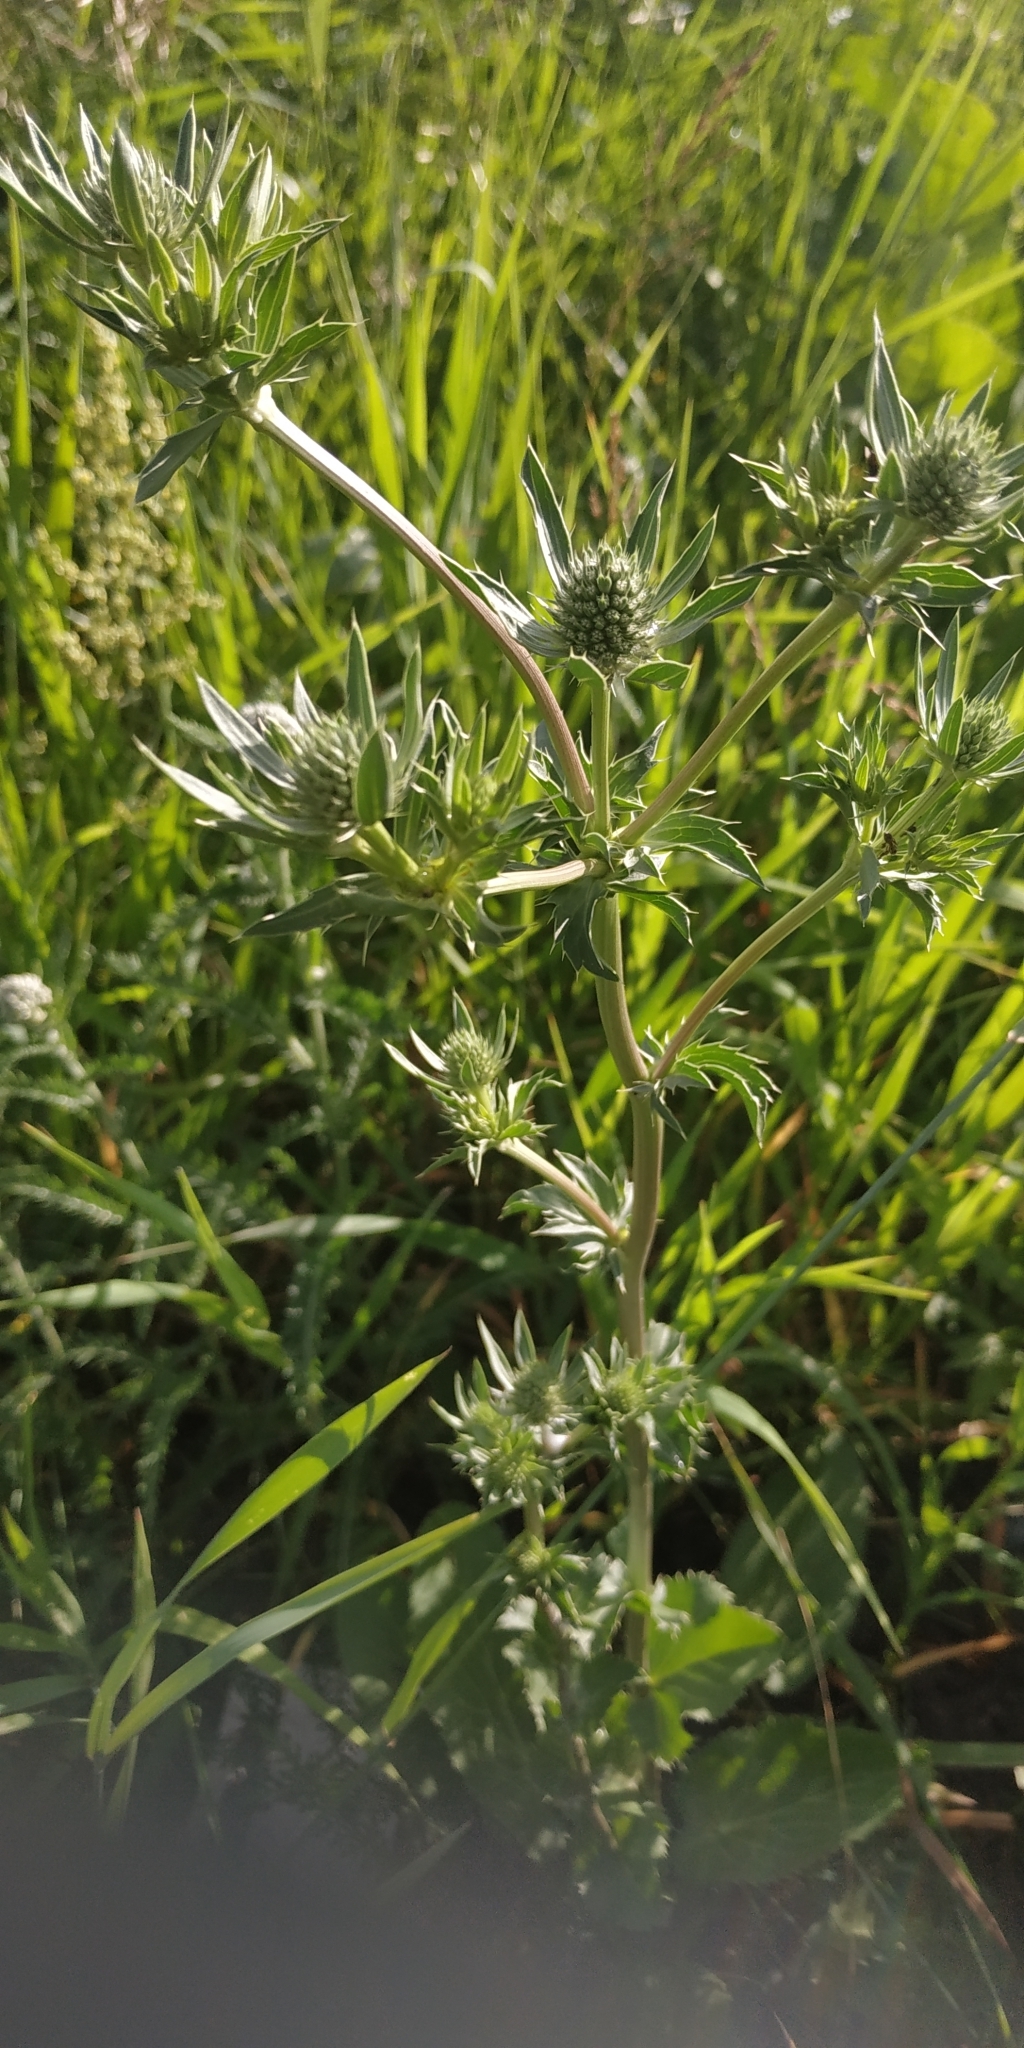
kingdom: Plantae
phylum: Tracheophyta
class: Magnoliopsida
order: Apiales
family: Apiaceae
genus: Eryngium
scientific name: Eryngium planum
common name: Blue eryngo
